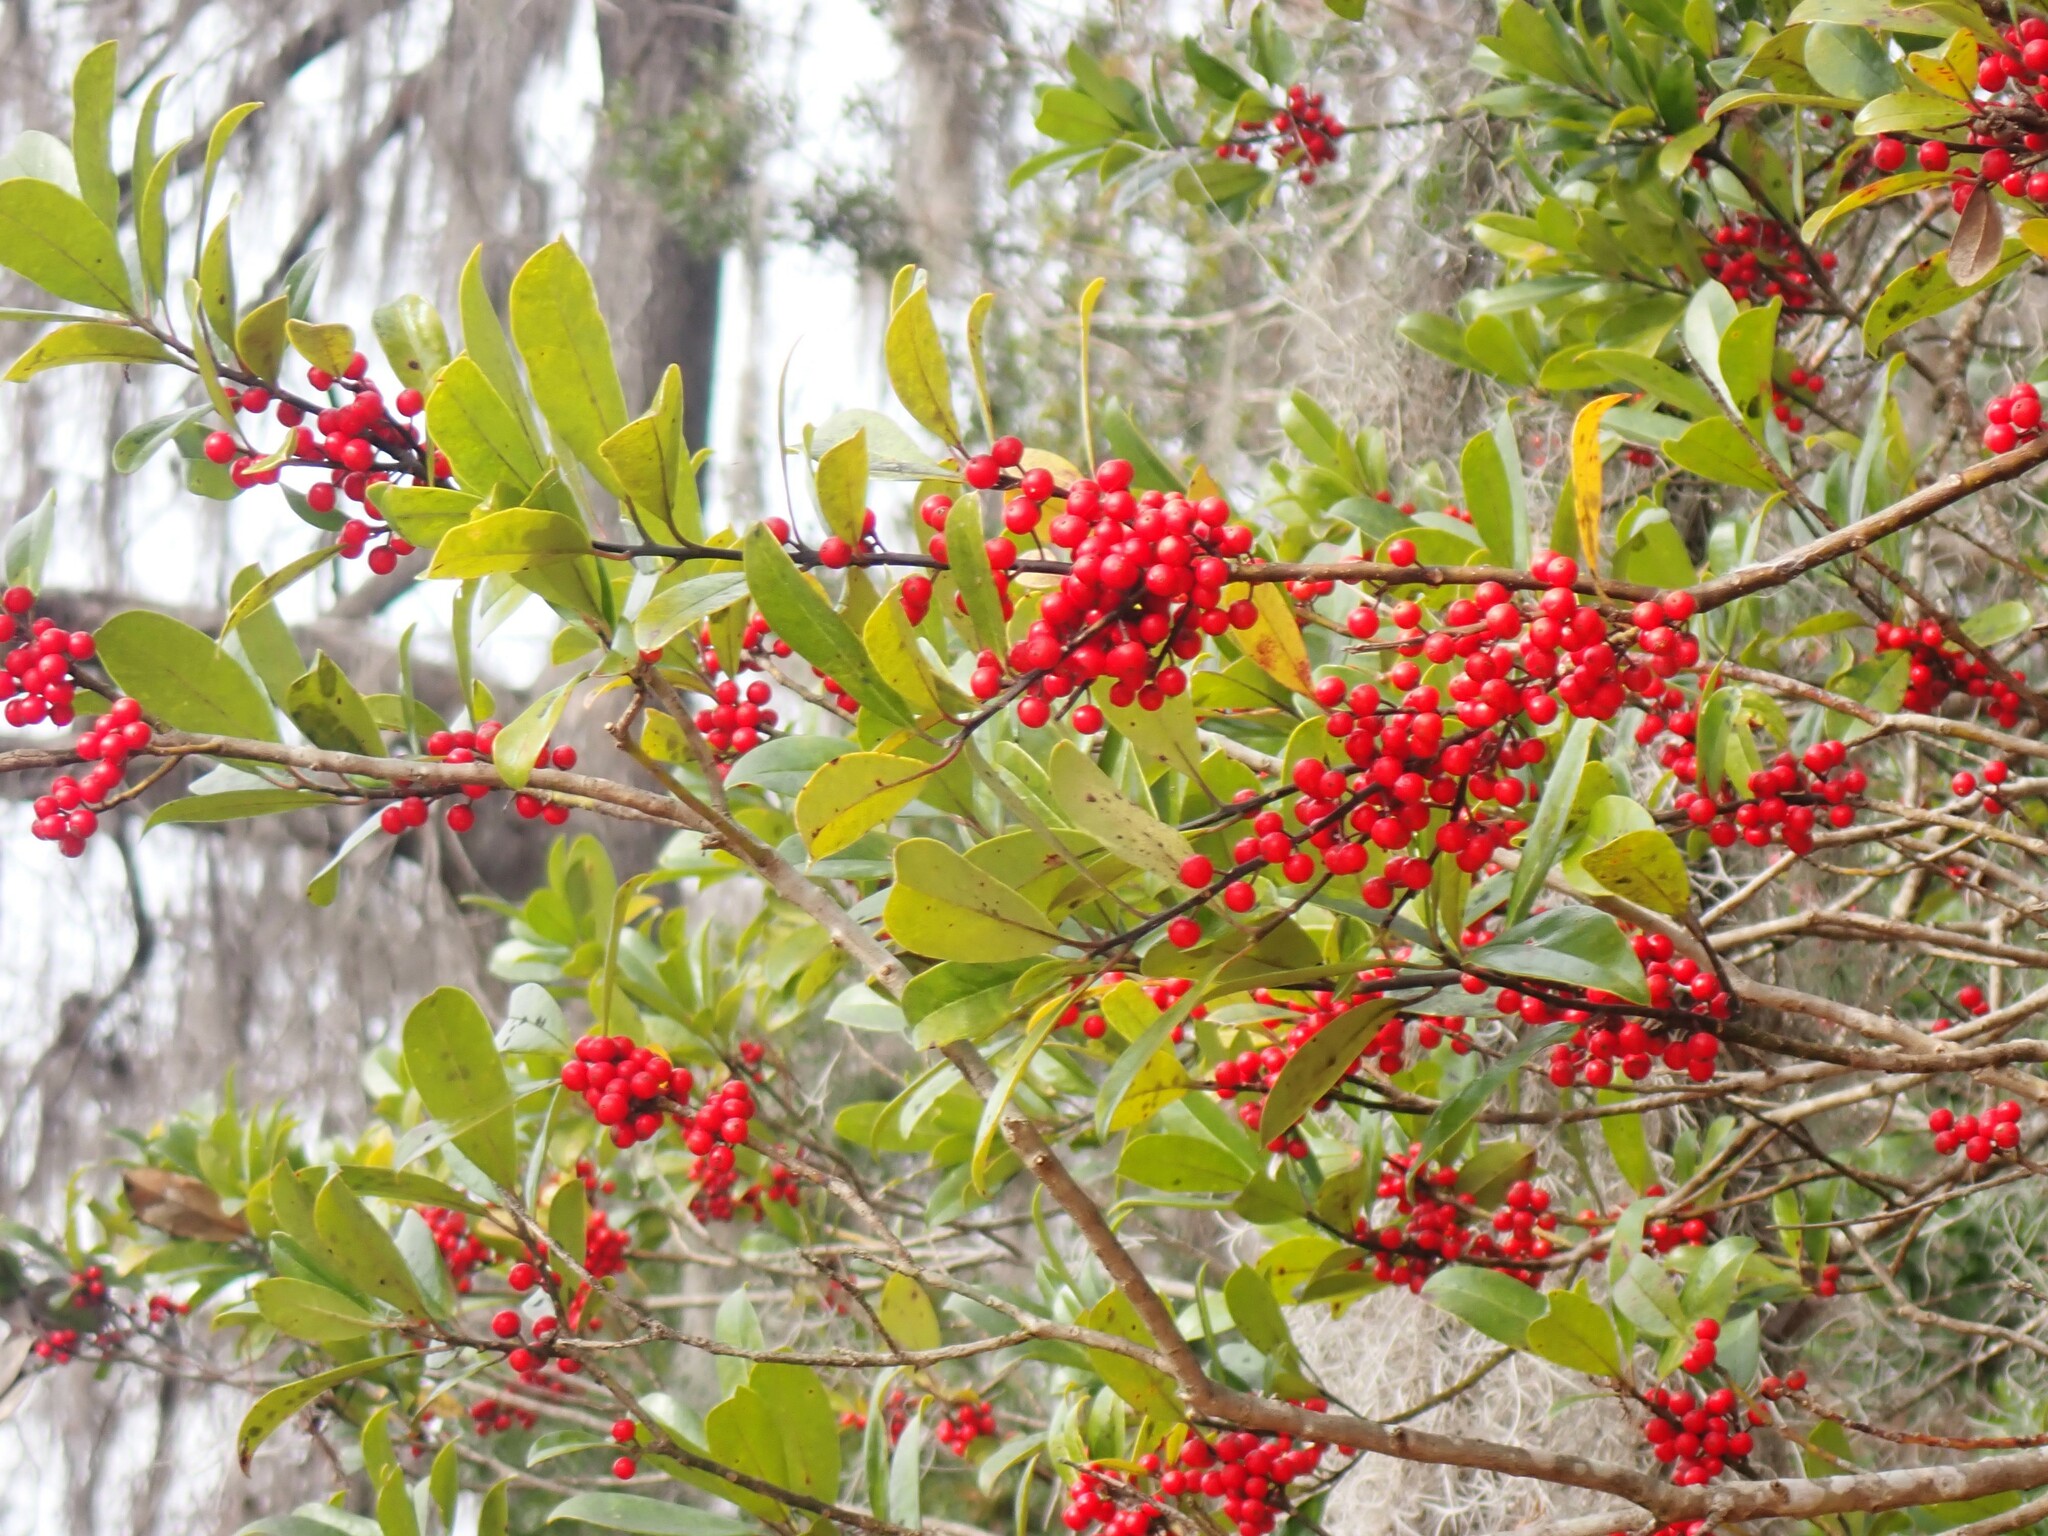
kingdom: Plantae
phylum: Tracheophyta
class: Magnoliopsida
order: Aquifoliales
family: Aquifoliaceae
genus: Ilex
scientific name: Ilex cassine
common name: Dahoon
